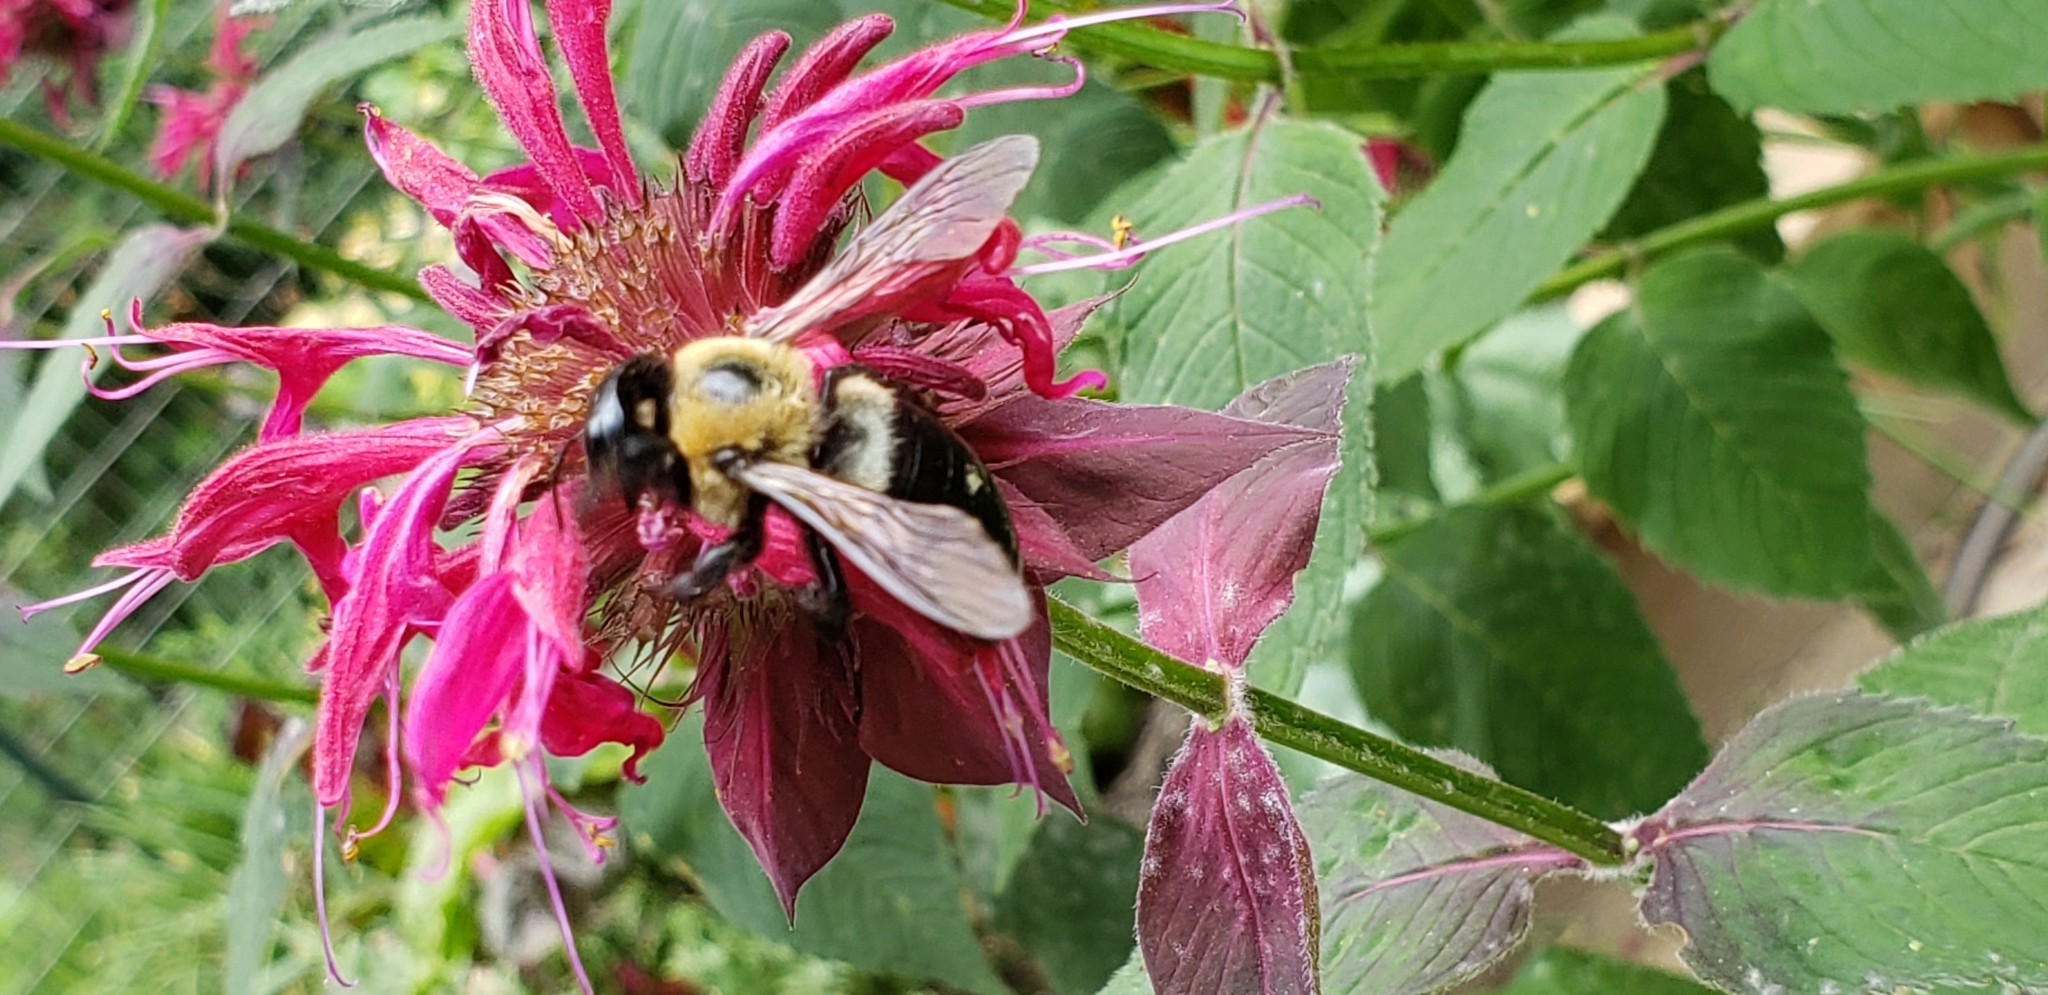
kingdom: Animalia
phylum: Arthropoda
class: Insecta
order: Hymenoptera
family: Apidae
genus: Xylocopa
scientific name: Xylocopa virginica
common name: Carpenter bee
